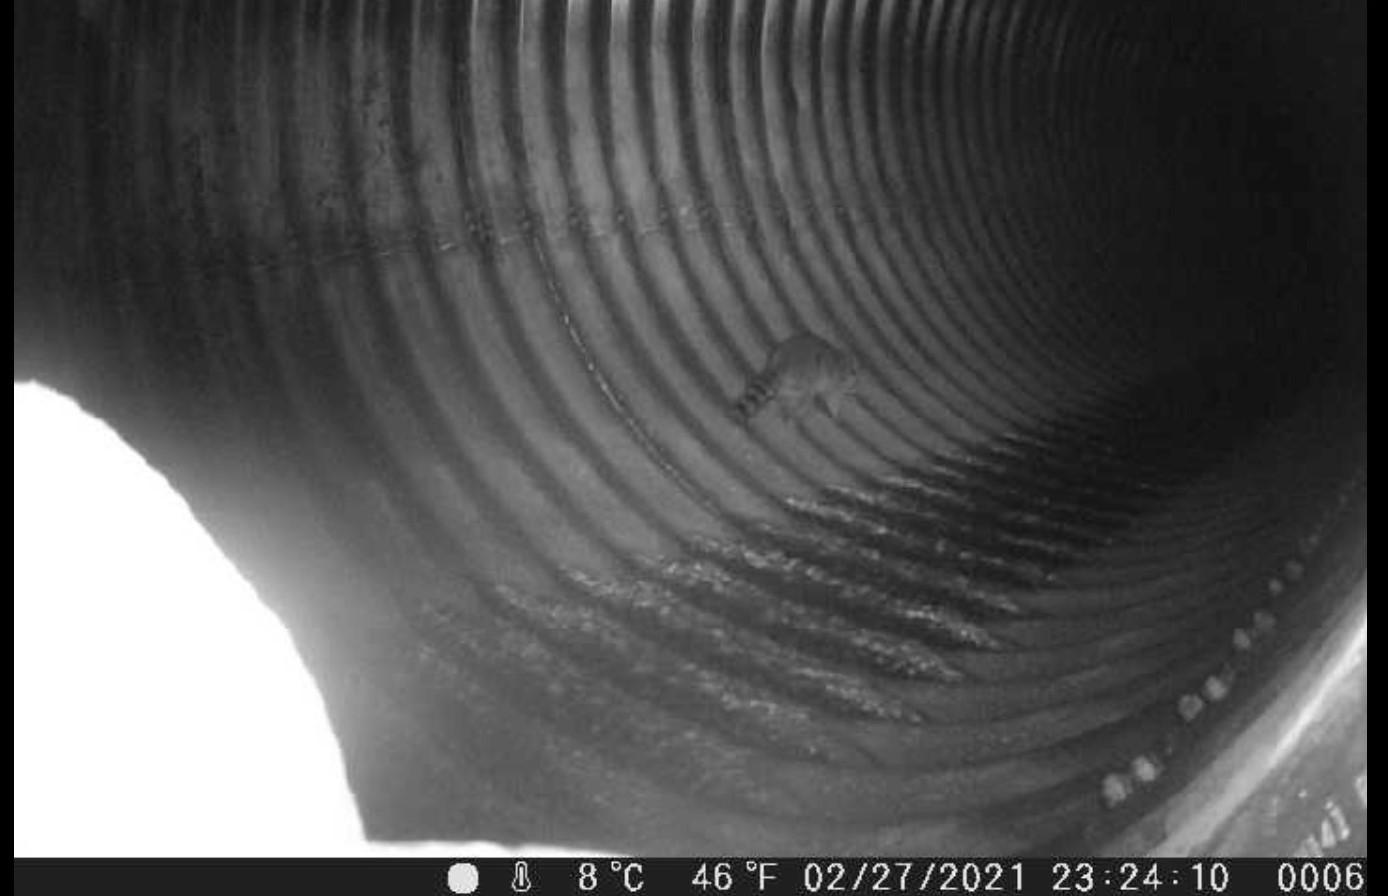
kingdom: Animalia
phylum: Chordata
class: Mammalia
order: Carnivora
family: Procyonidae
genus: Procyon
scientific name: Procyon lotor
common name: Raccoon
